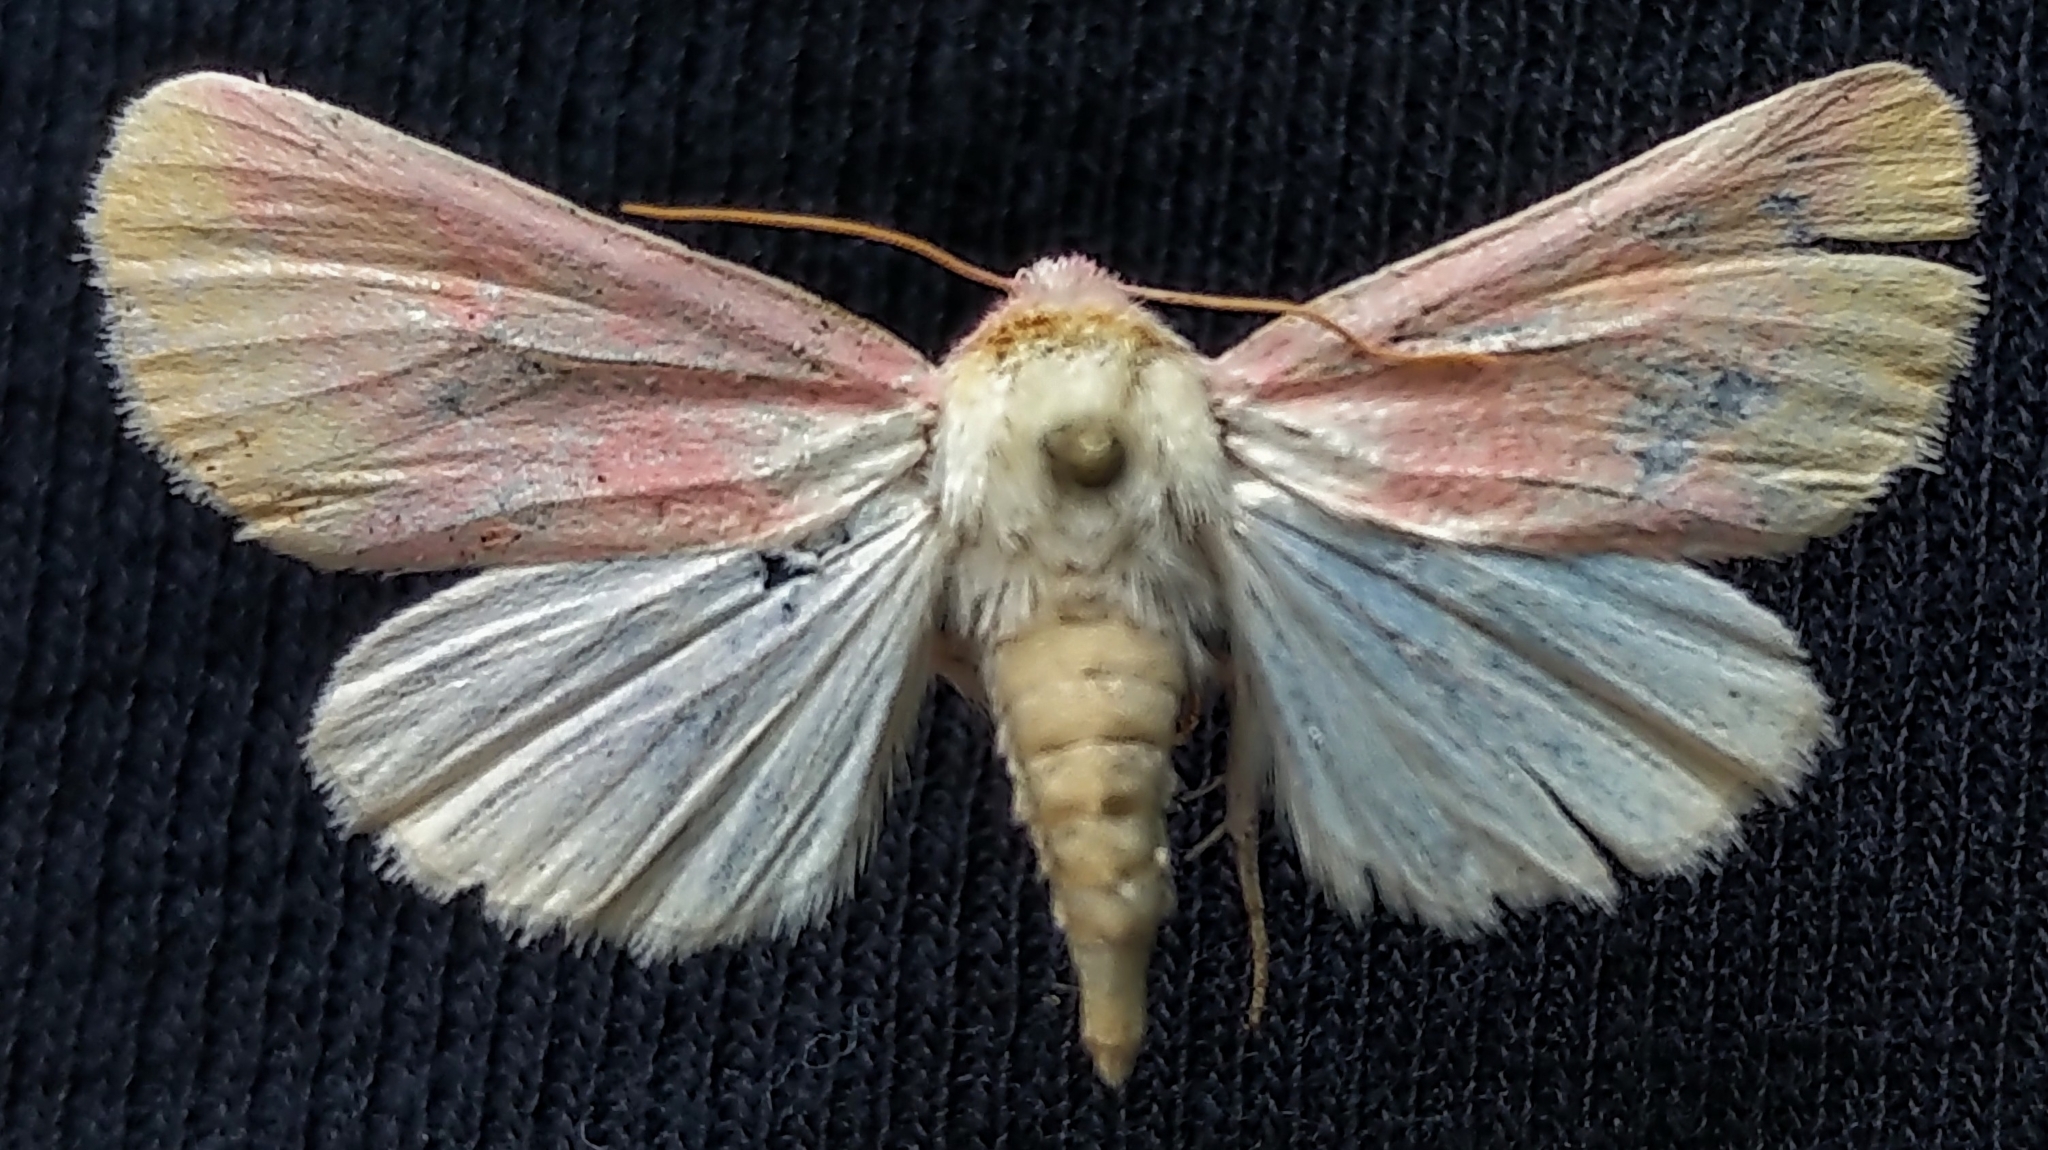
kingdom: Animalia
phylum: Arthropoda
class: Insecta
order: Lepidoptera
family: Noctuidae
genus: Schinia
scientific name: Schinia florida
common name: Primrose moth
